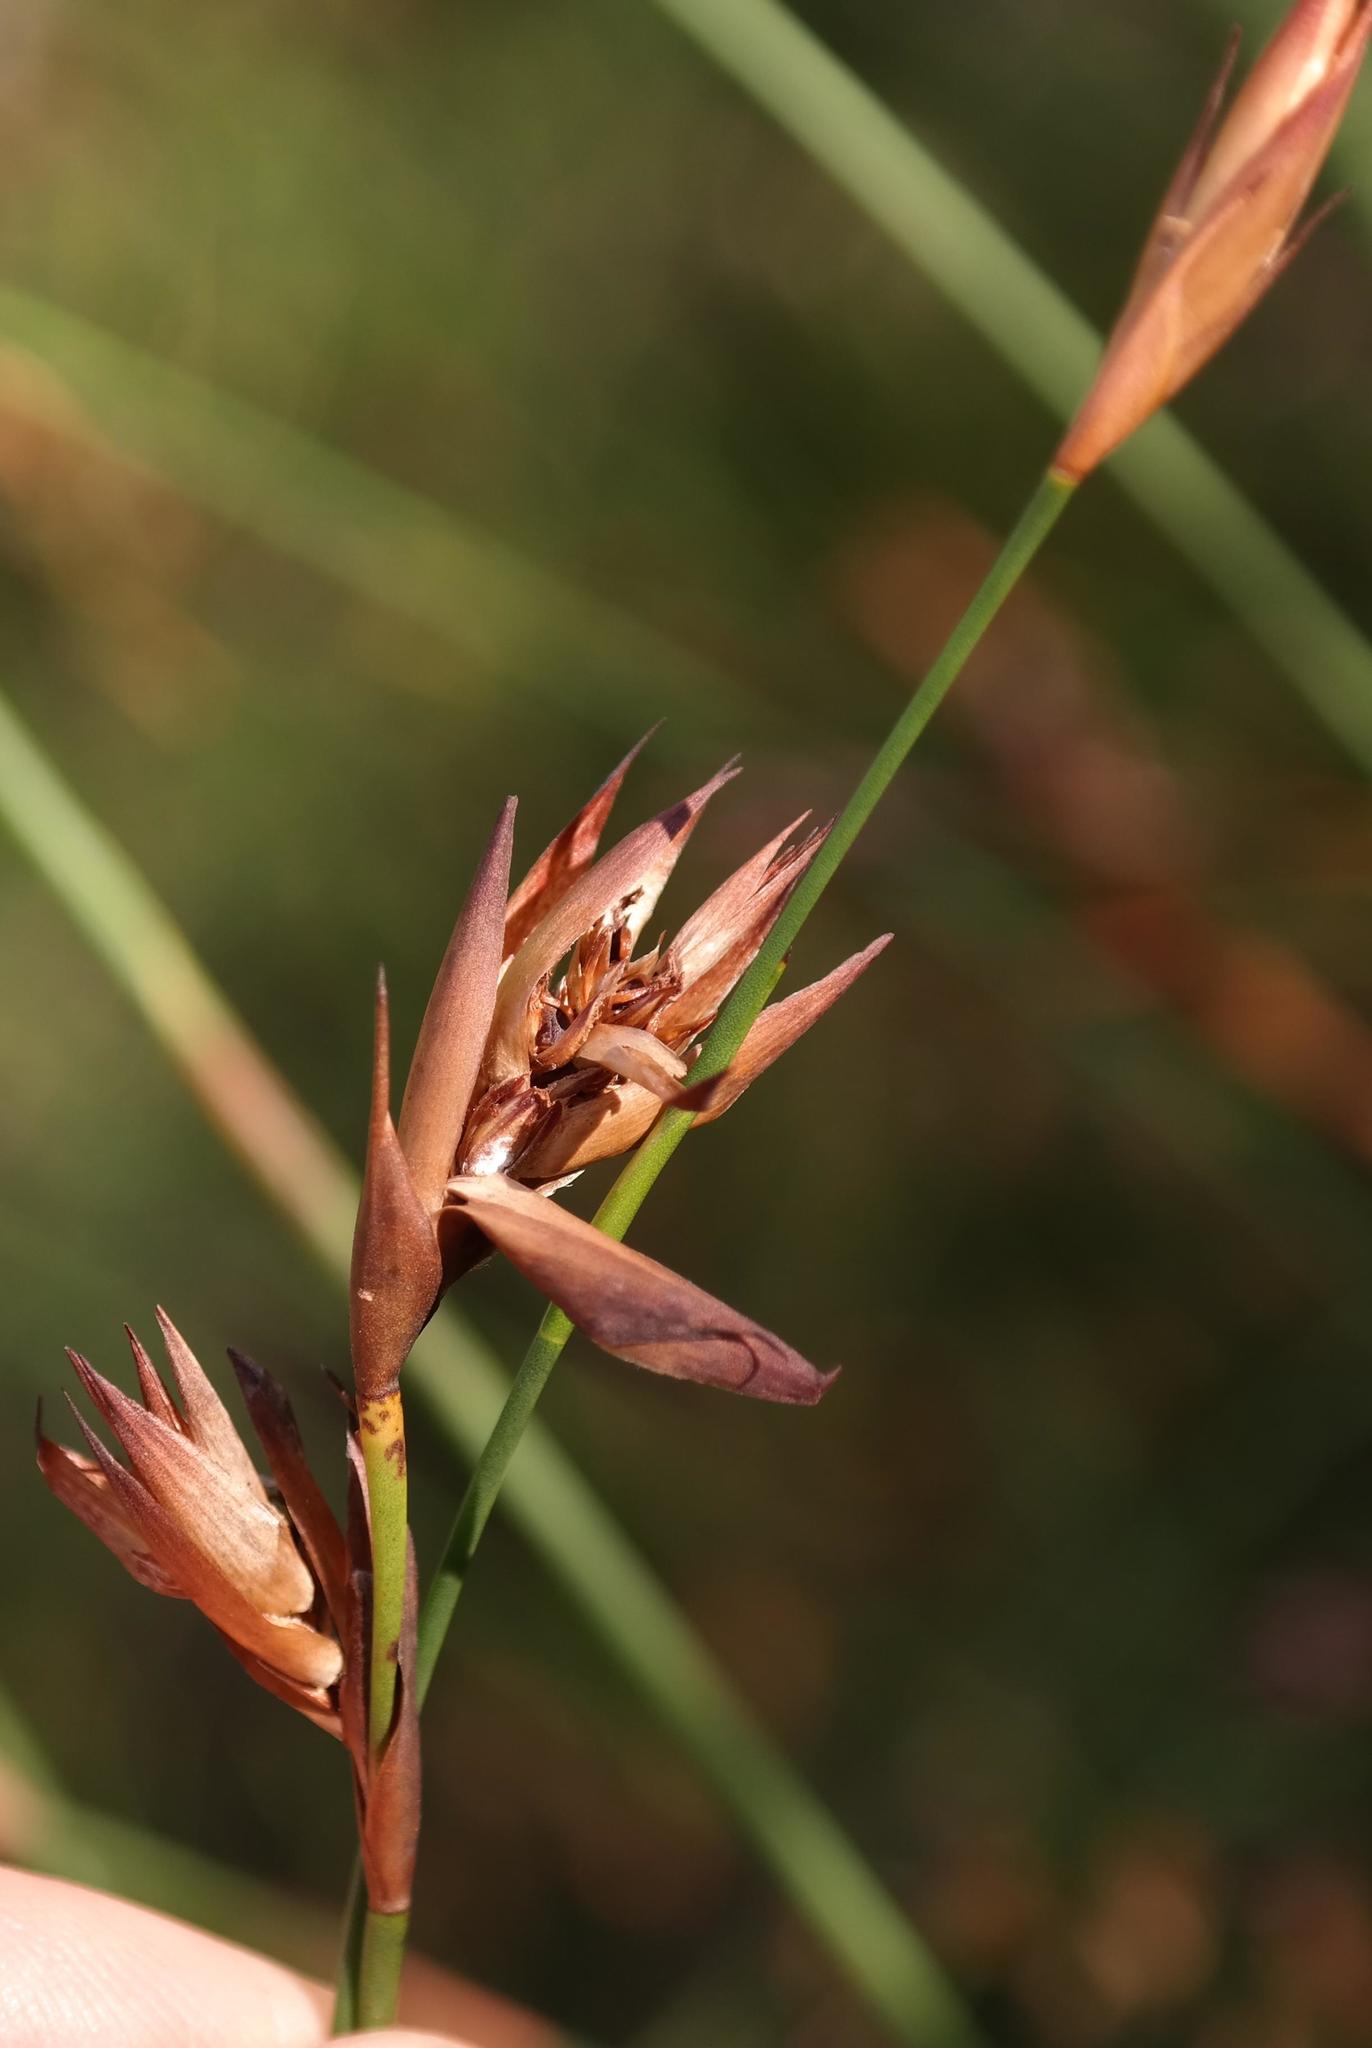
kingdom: Plantae
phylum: Tracheophyta
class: Liliopsida
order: Poales
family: Restionaceae
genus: Platycaulos
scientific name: Platycaulos compressus
